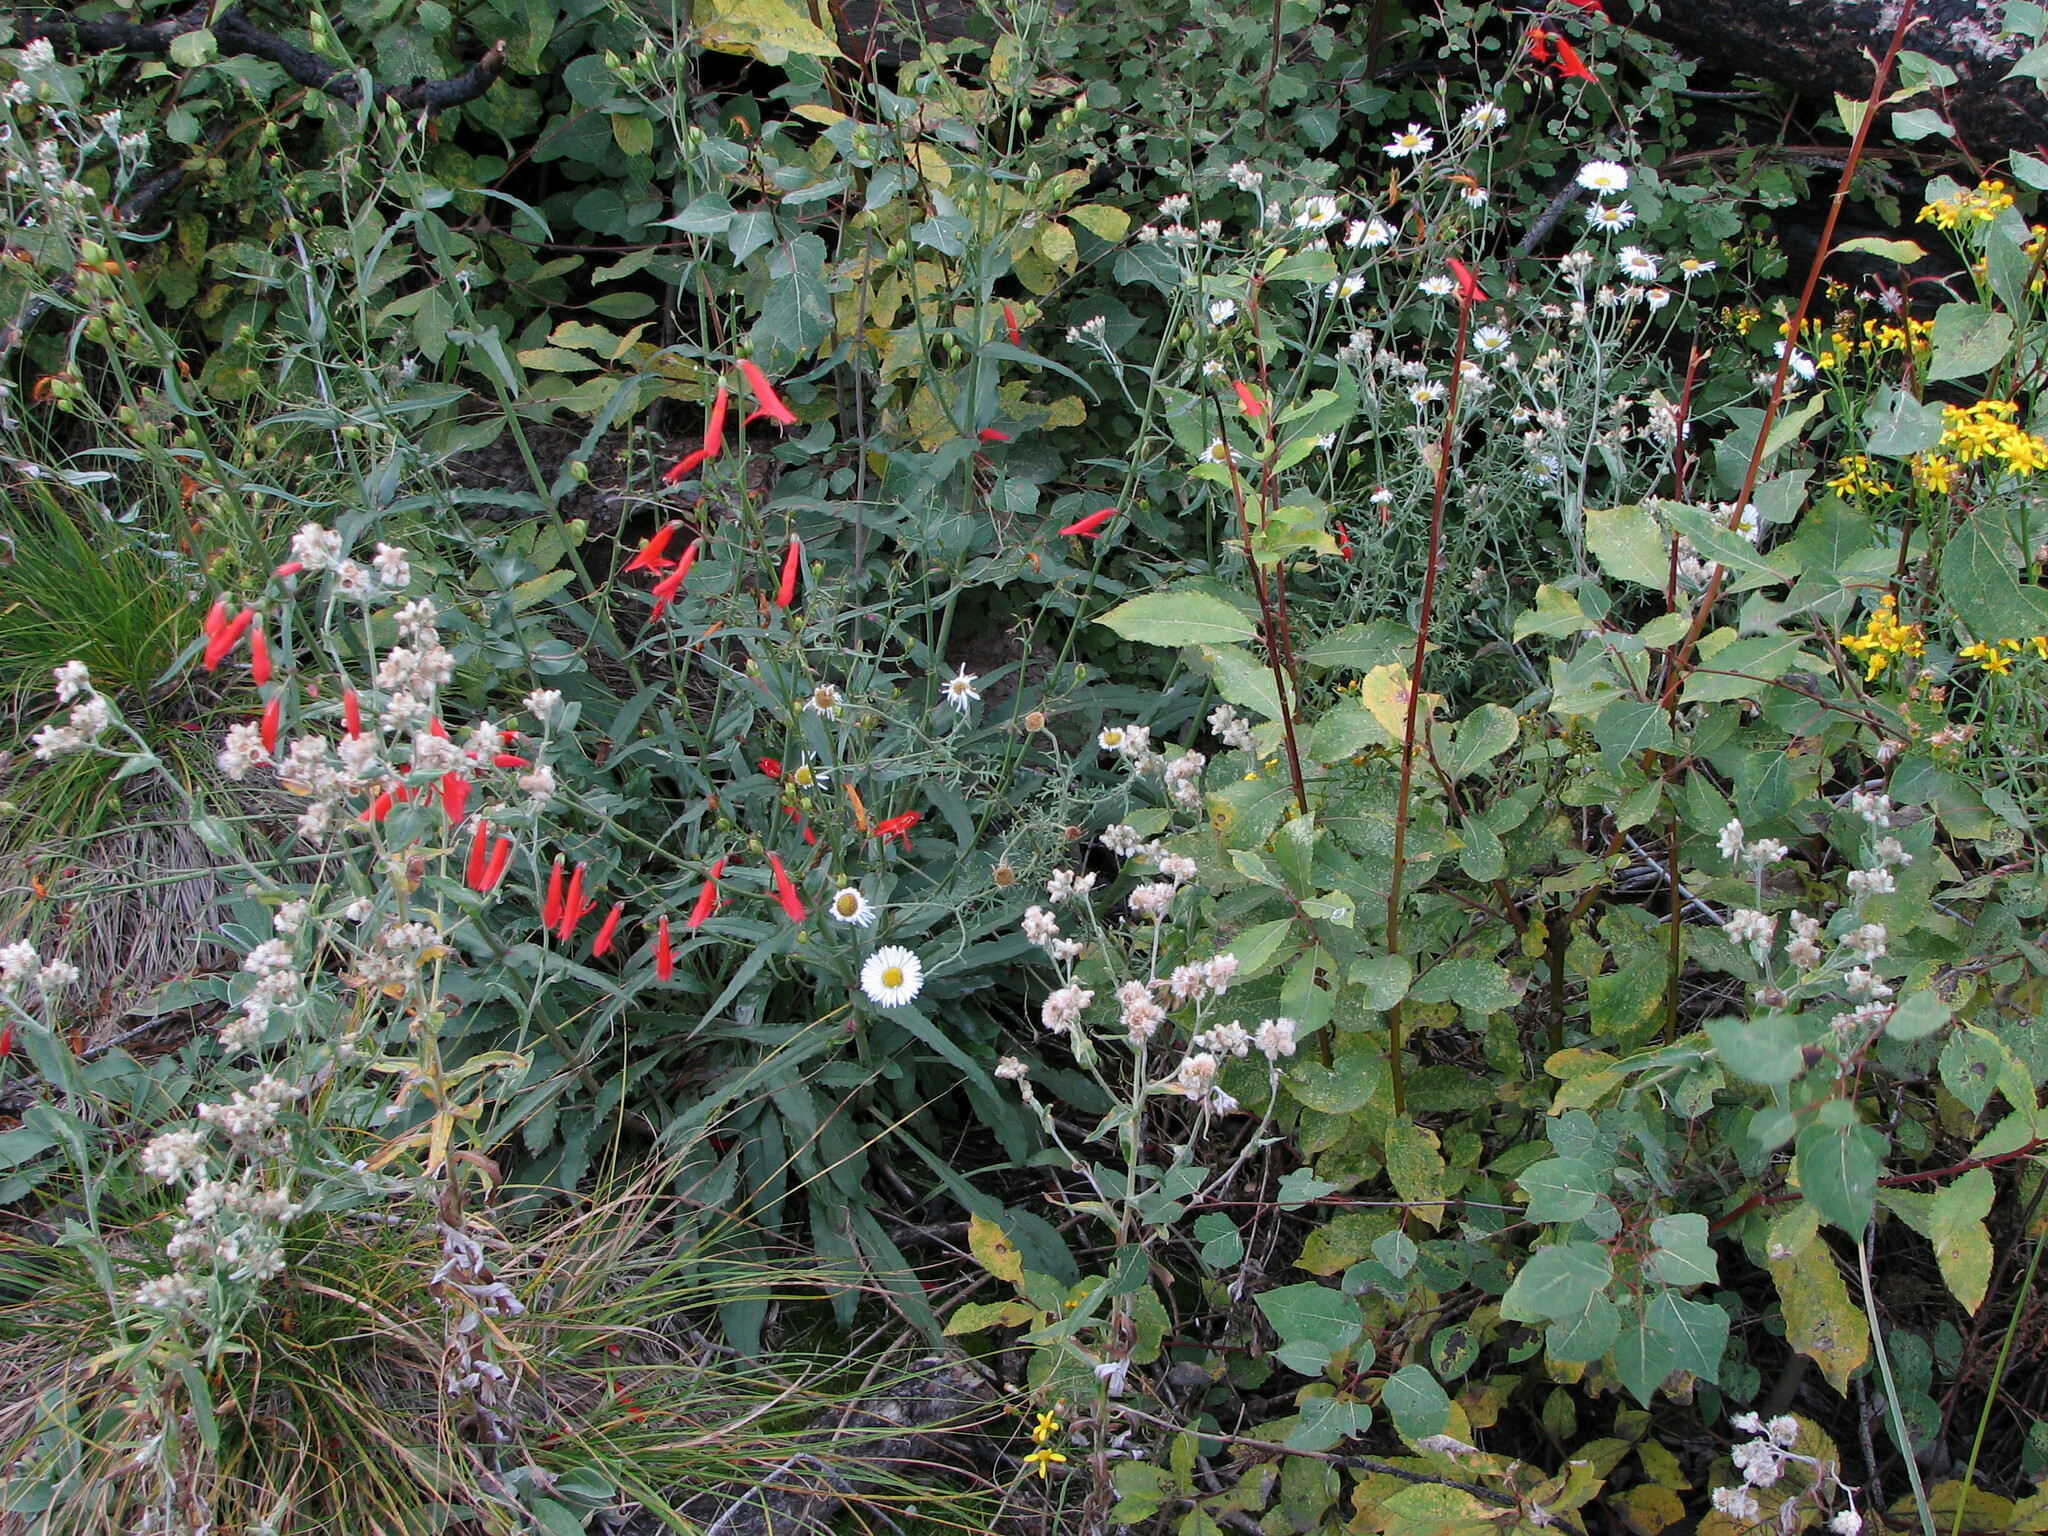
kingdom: Plantae
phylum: Tracheophyta
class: Magnoliopsida
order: Lamiales
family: Plantaginaceae
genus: Penstemon
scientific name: Penstemon barbatus
